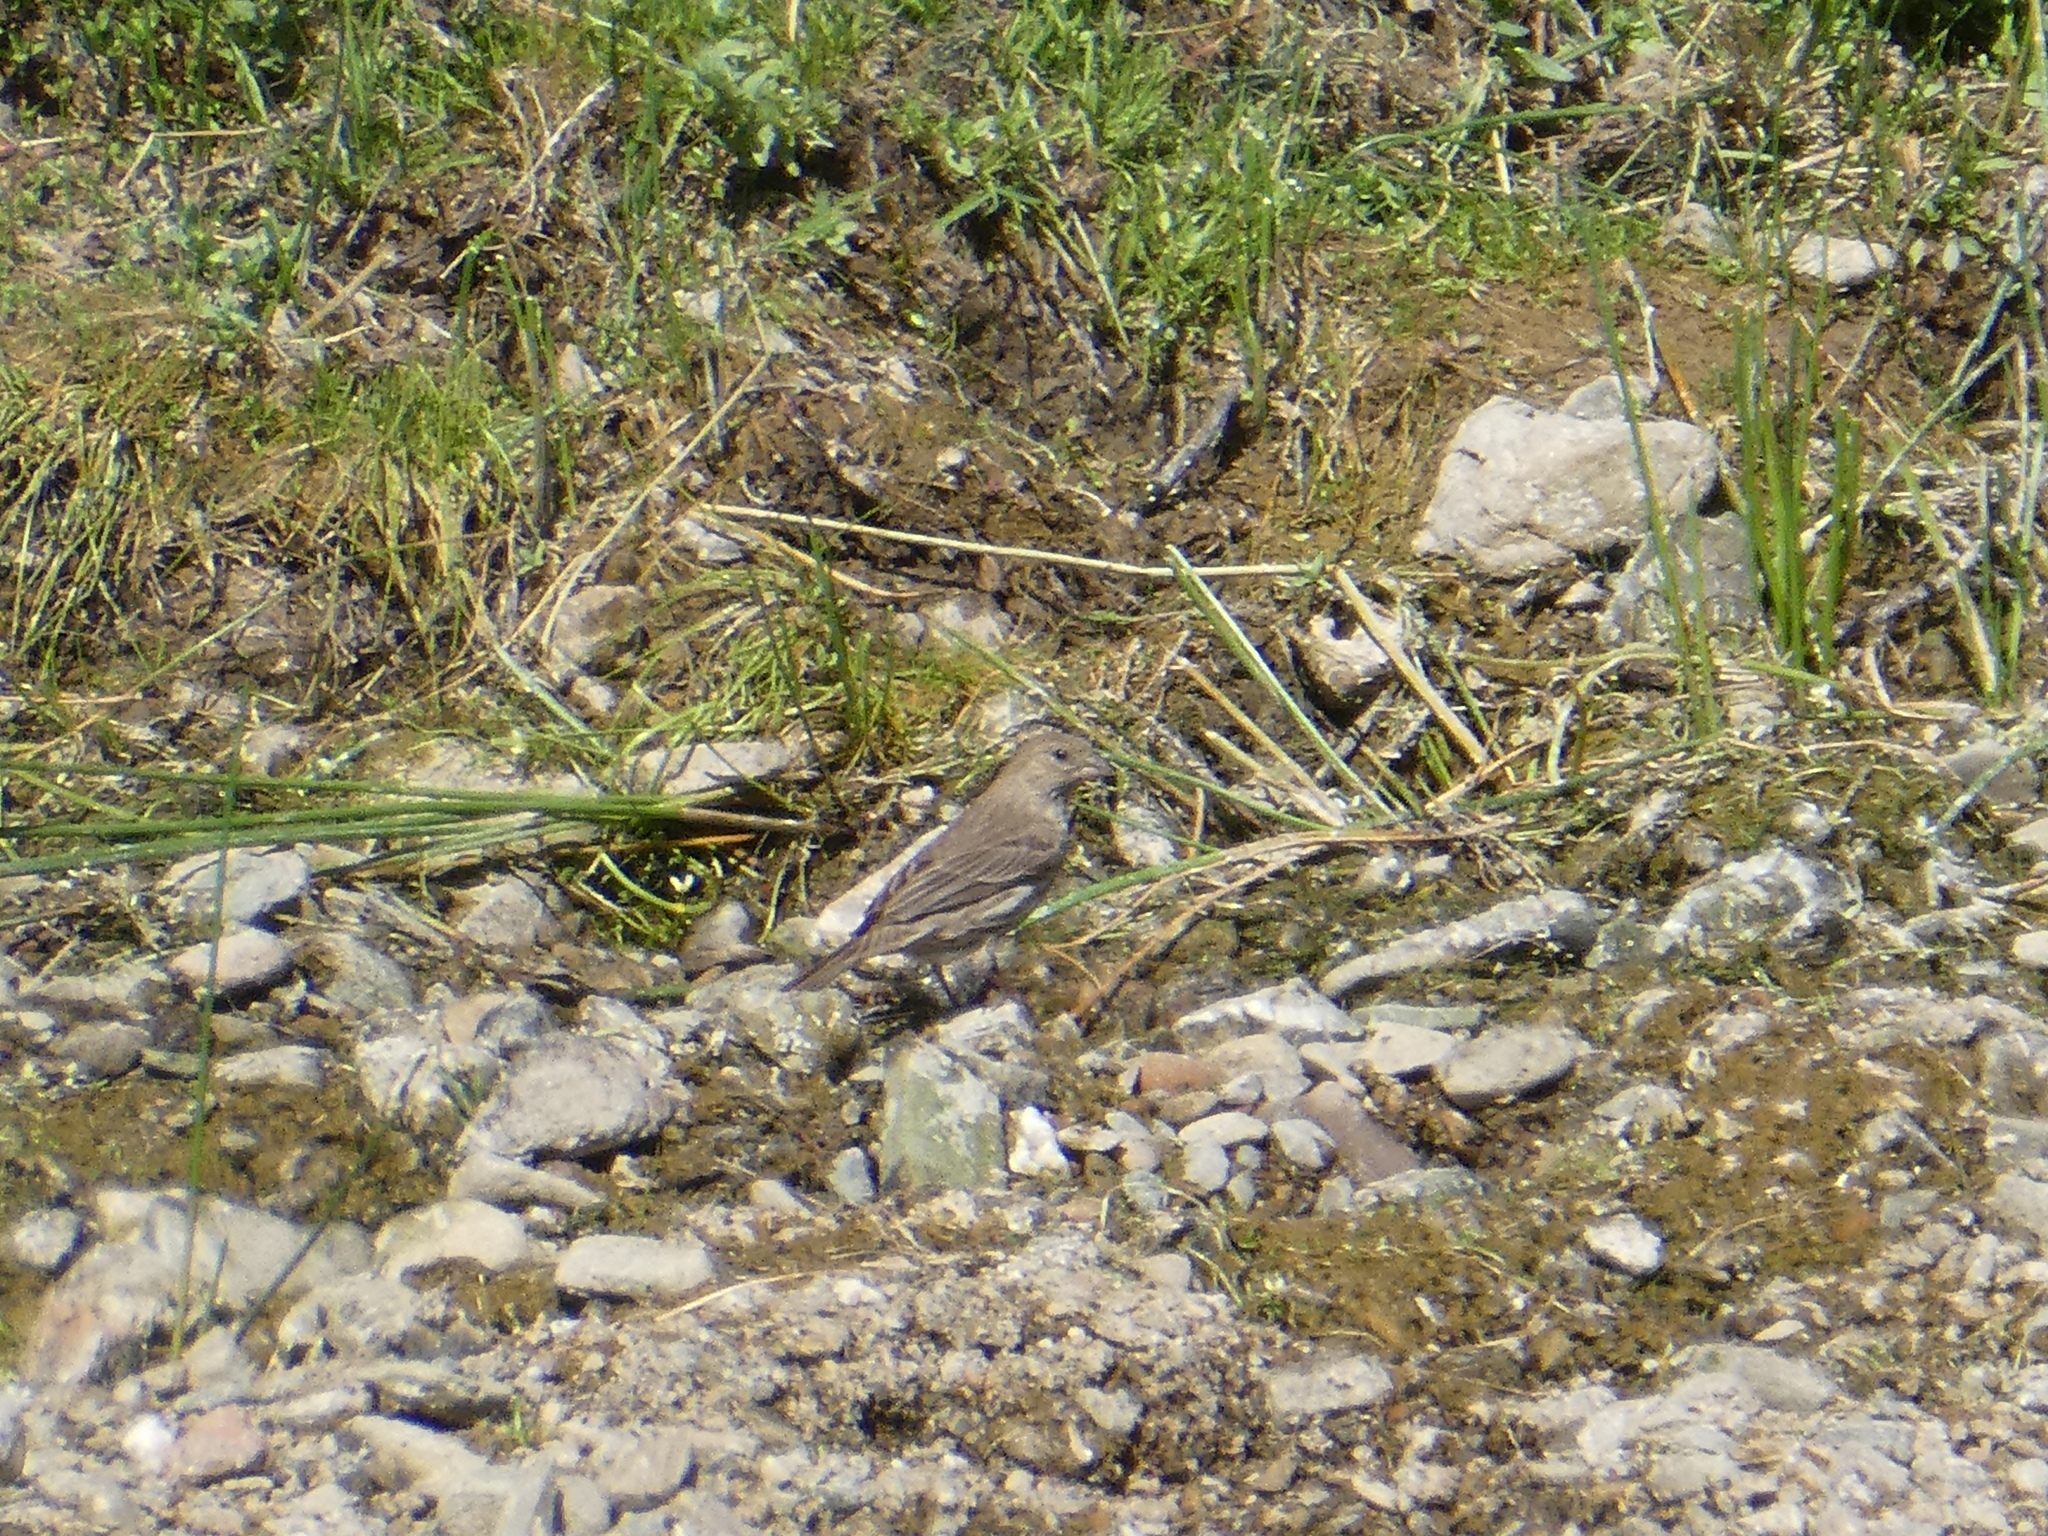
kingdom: Animalia
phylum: Chordata
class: Aves
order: Passeriformes
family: Fringillidae
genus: Haemorhous
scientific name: Haemorhous mexicanus
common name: House finch
